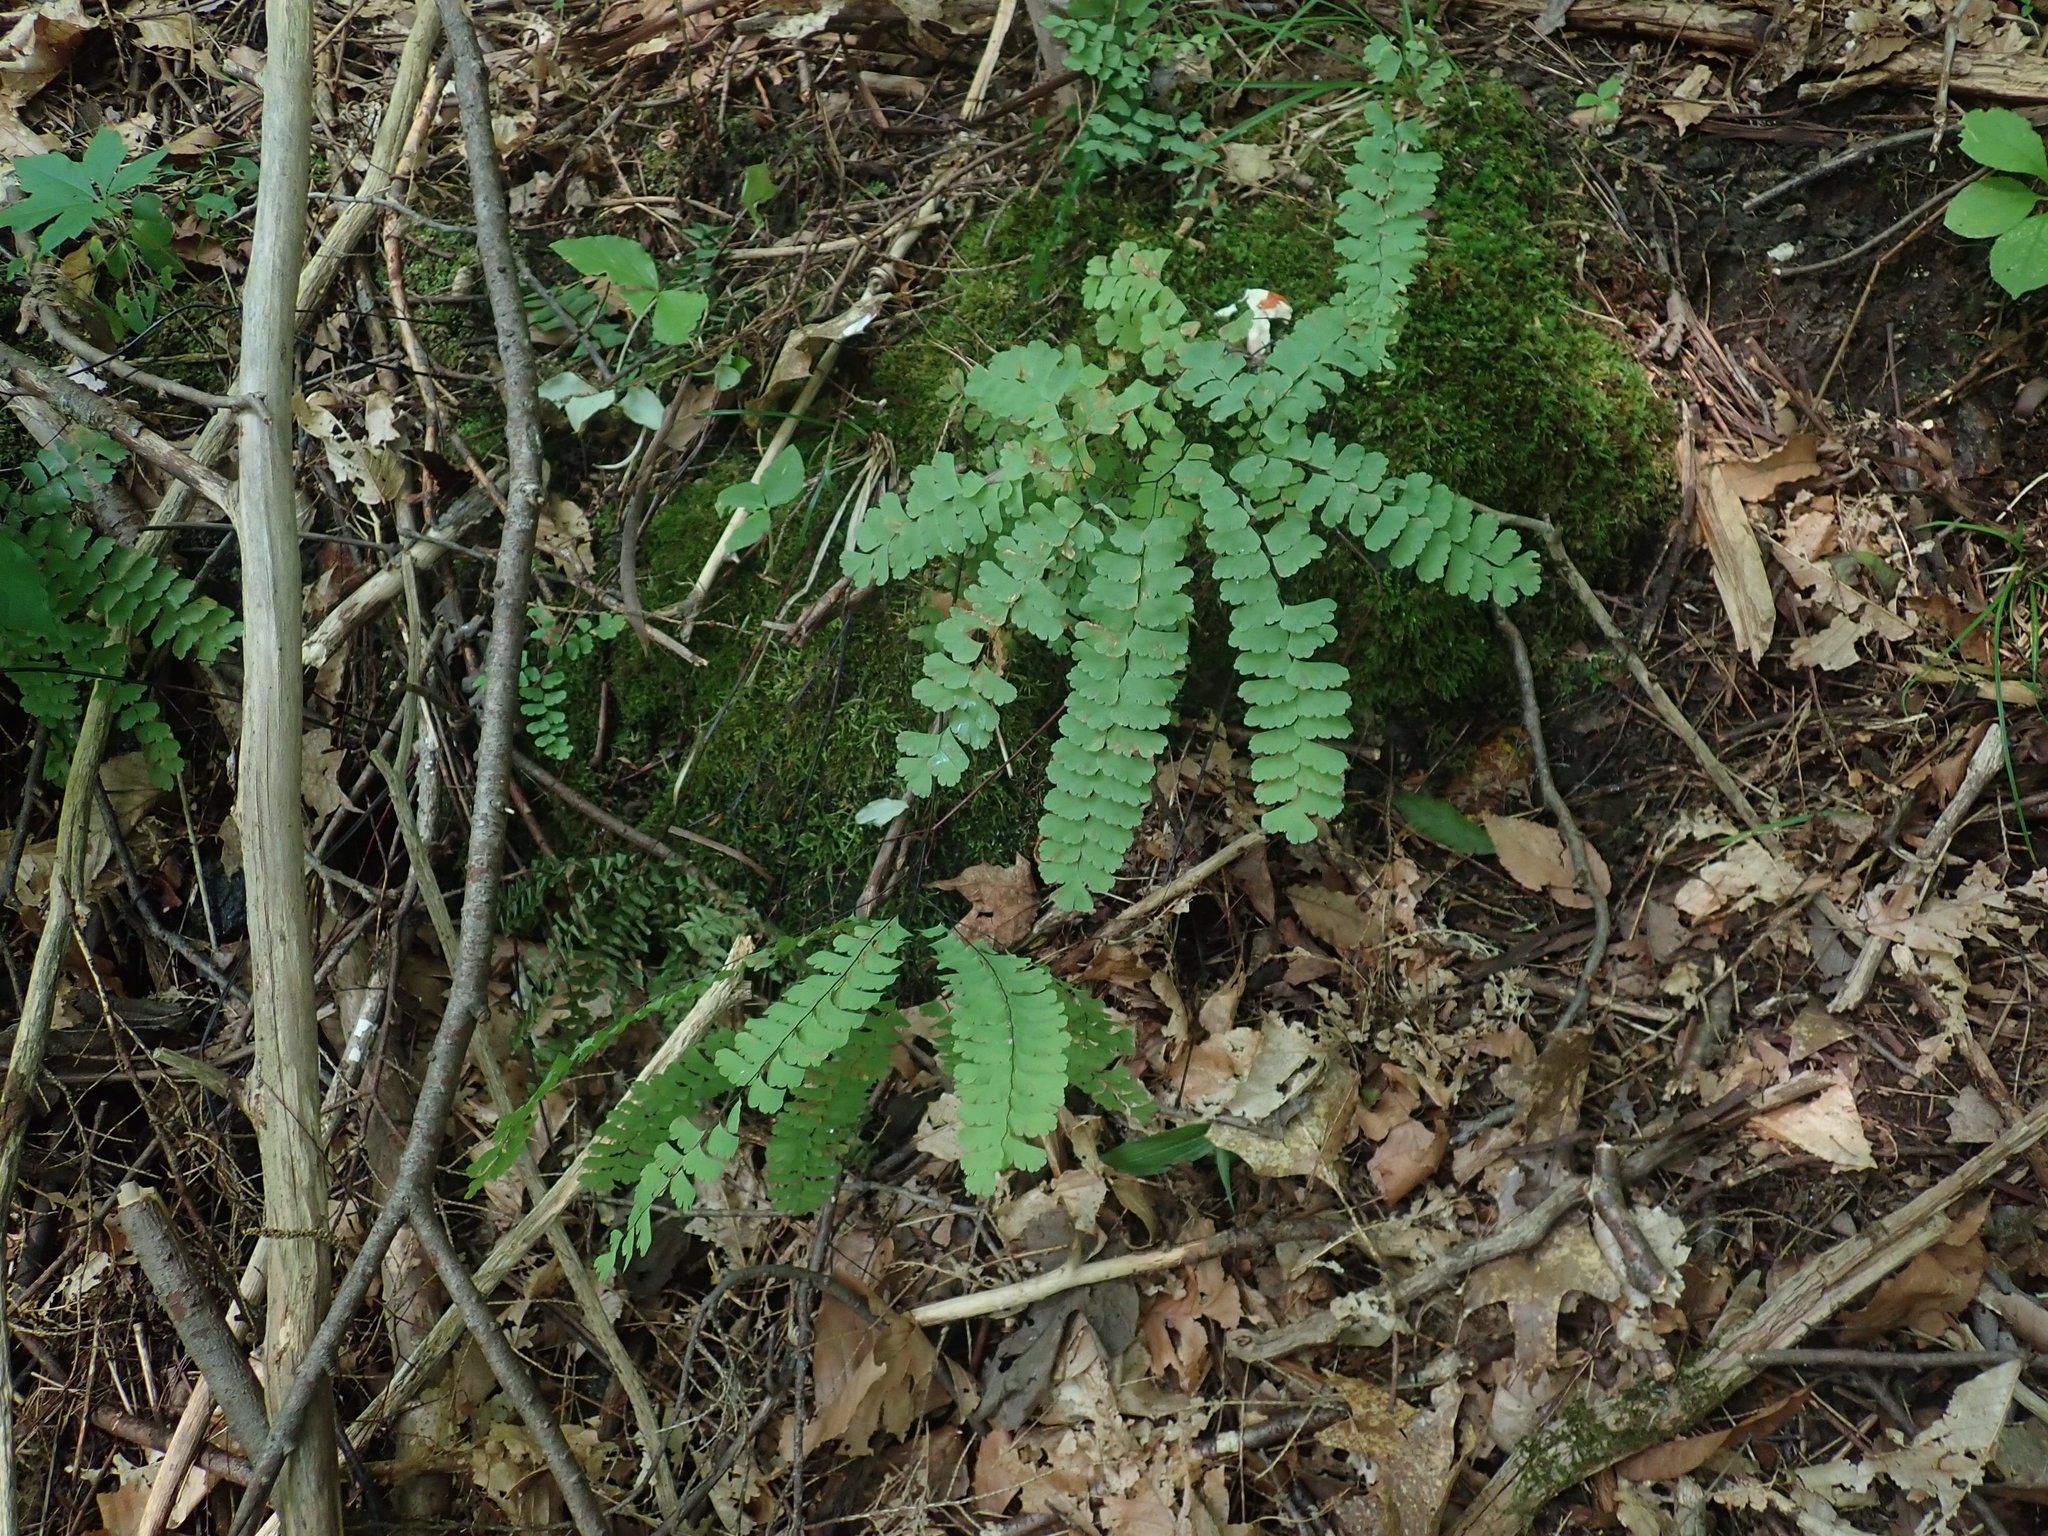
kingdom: Plantae
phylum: Tracheophyta
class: Polypodiopsida
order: Polypodiales
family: Pteridaceae
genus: Adiantum
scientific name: Adiantum pedatum
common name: Five-finger fern
